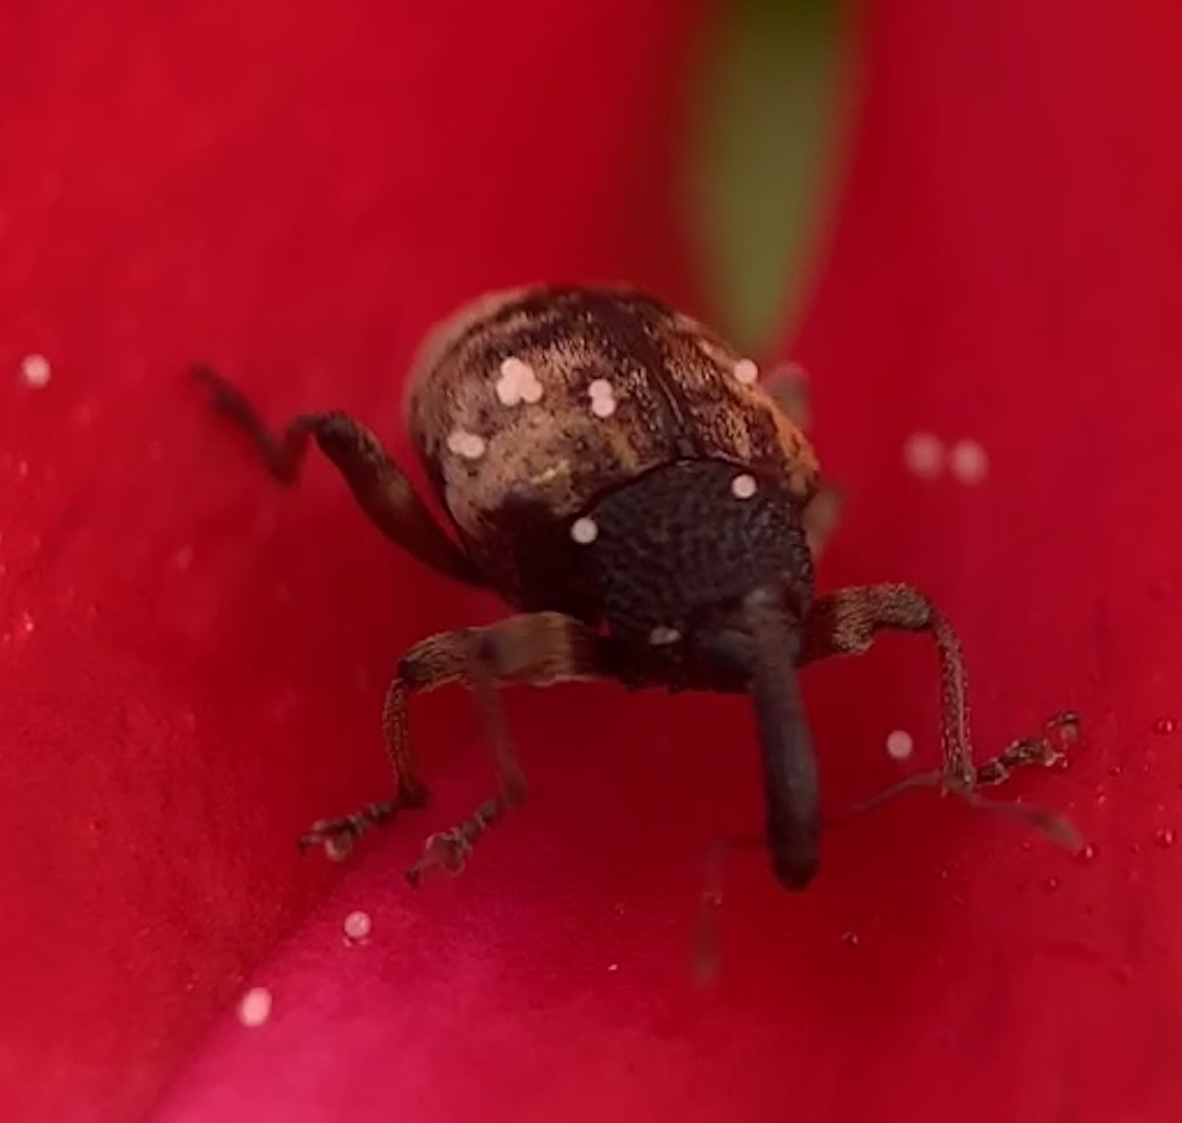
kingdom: Animalia
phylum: Arthropoda
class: Insecta
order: Coleoptera
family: Curculionidae
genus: Conotrachelus
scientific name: Conotrachelus fissunguis
